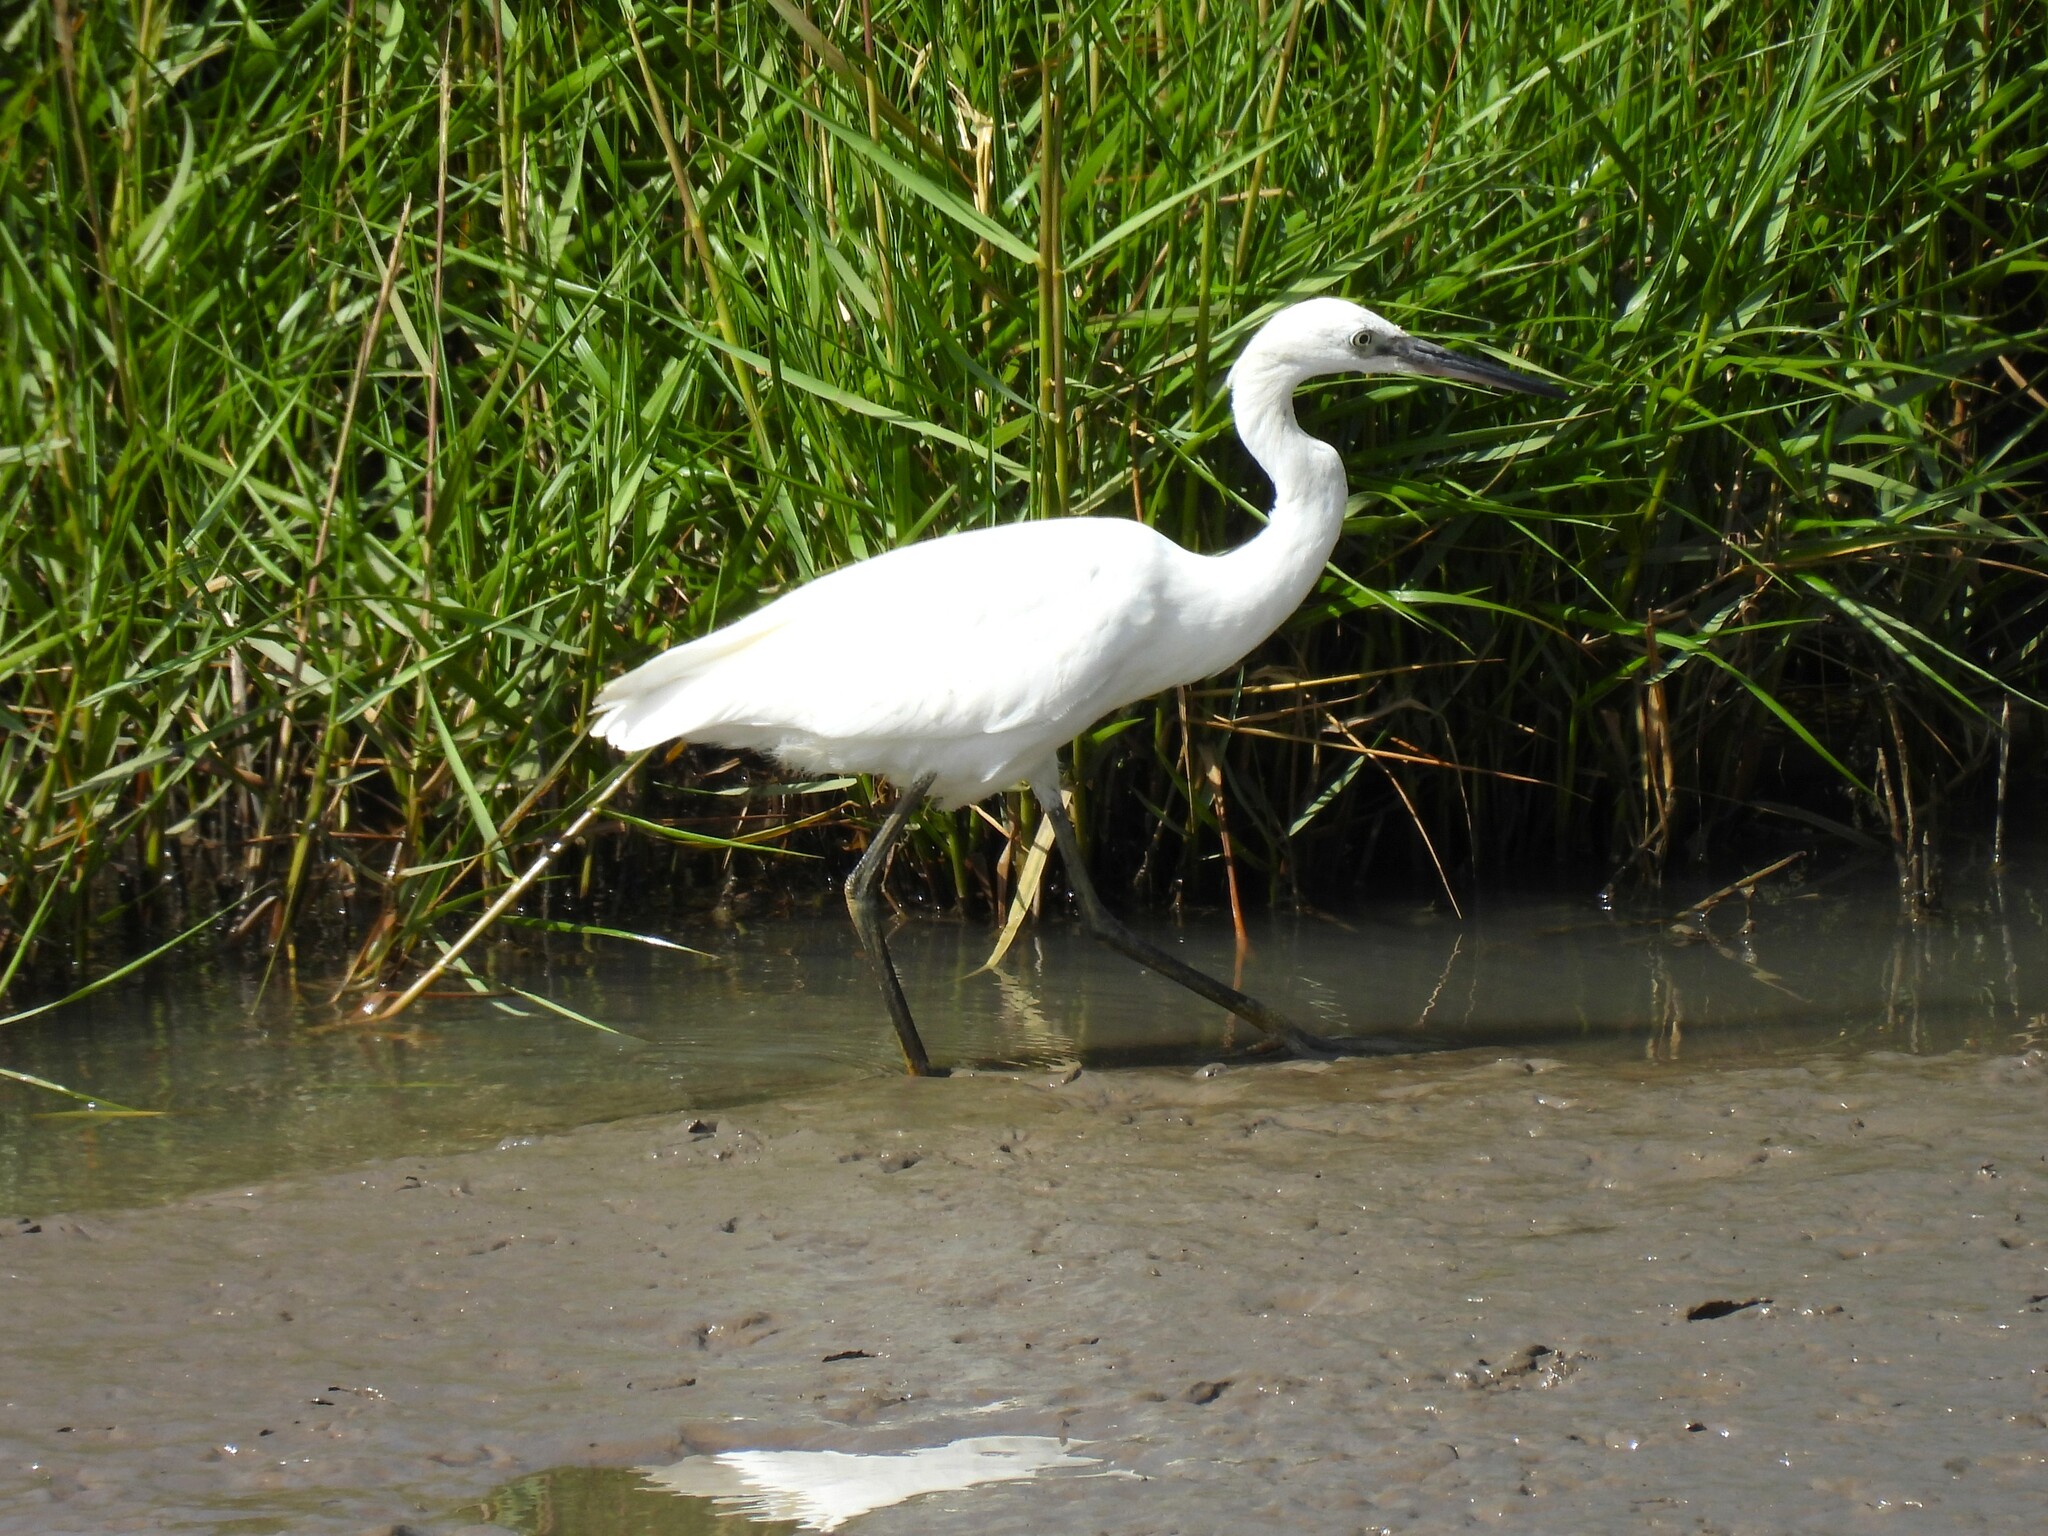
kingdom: Animalia
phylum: Chordata
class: Aves
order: Pelecaniformes
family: Ardeidae
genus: Egretta
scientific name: Egretta garzetta
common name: Little egret
